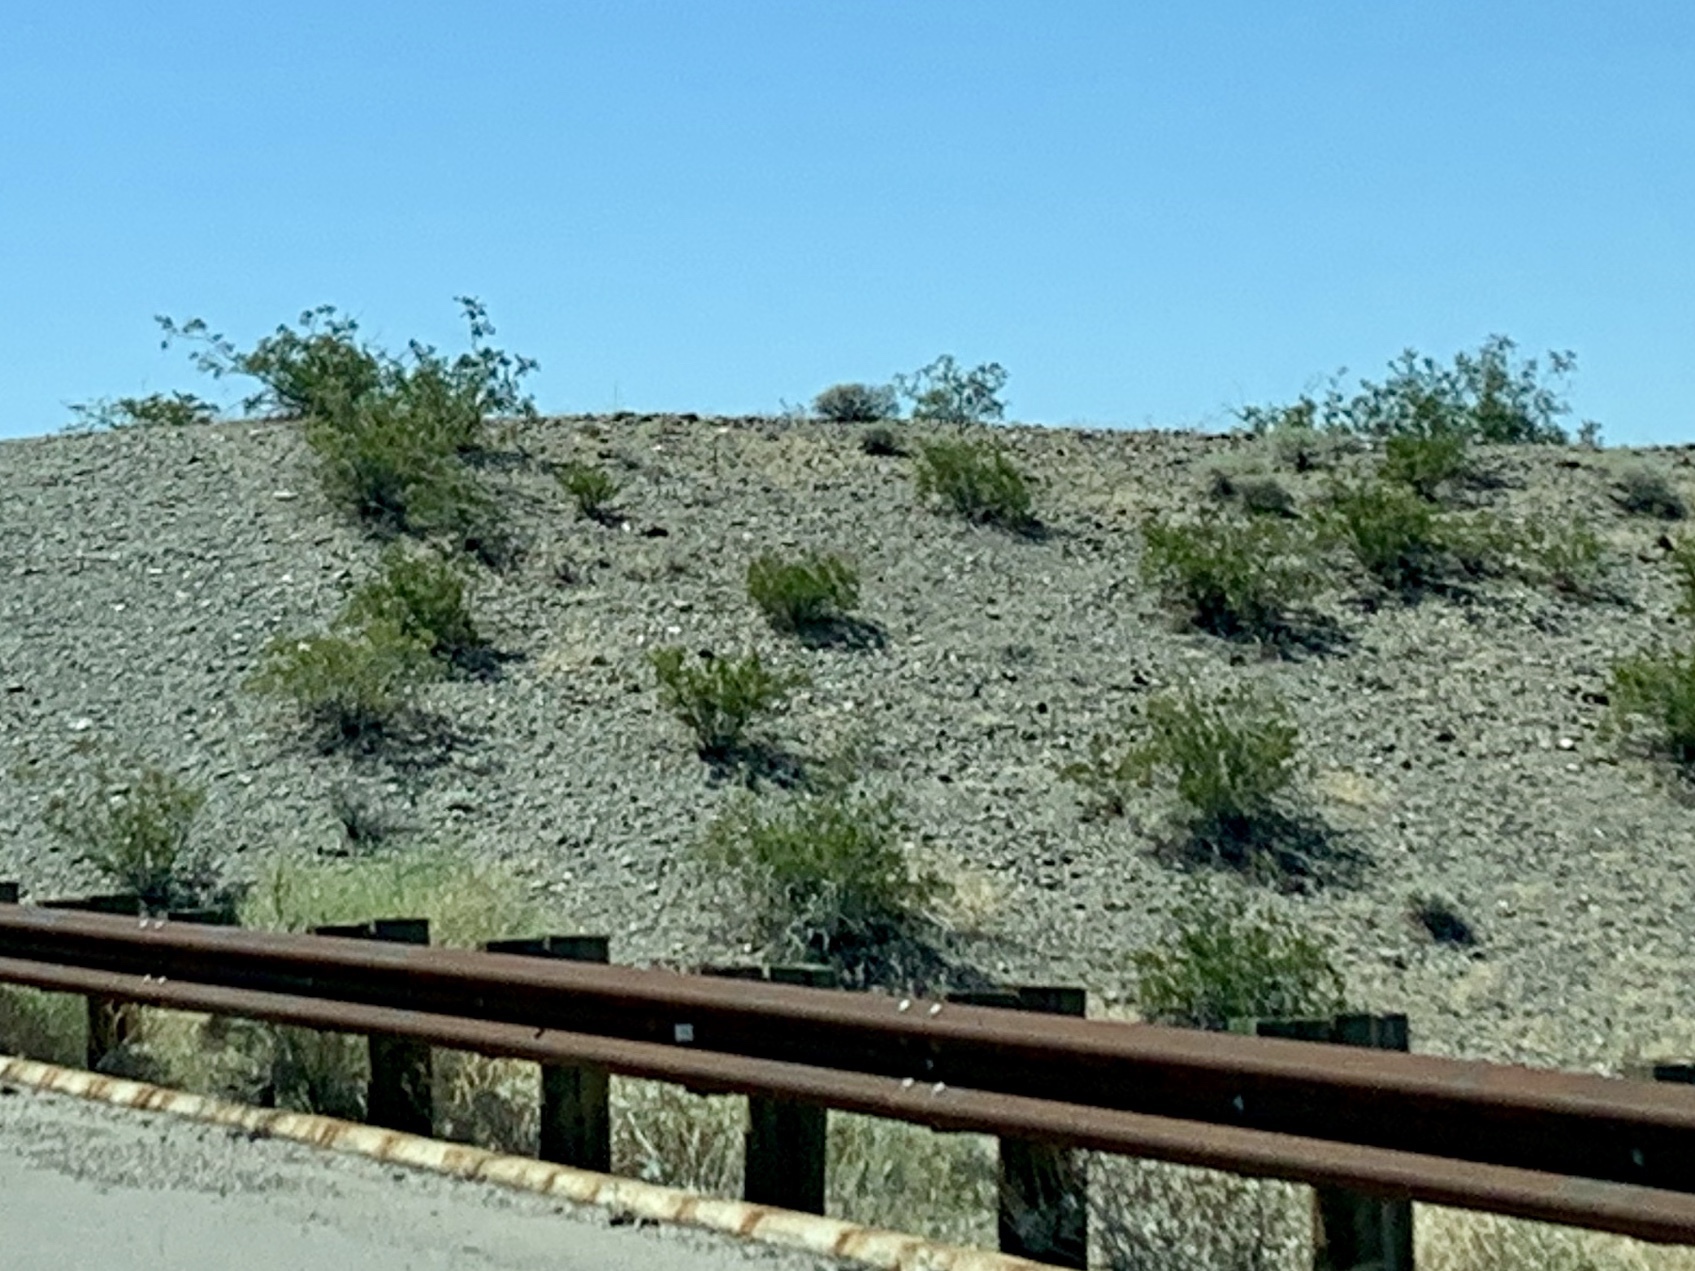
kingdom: Plantae
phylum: Tracheophyta
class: Magnoliopsida
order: Zygophyllales
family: Zygophyllaceae
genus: Larrea
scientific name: Larrea tridentata
